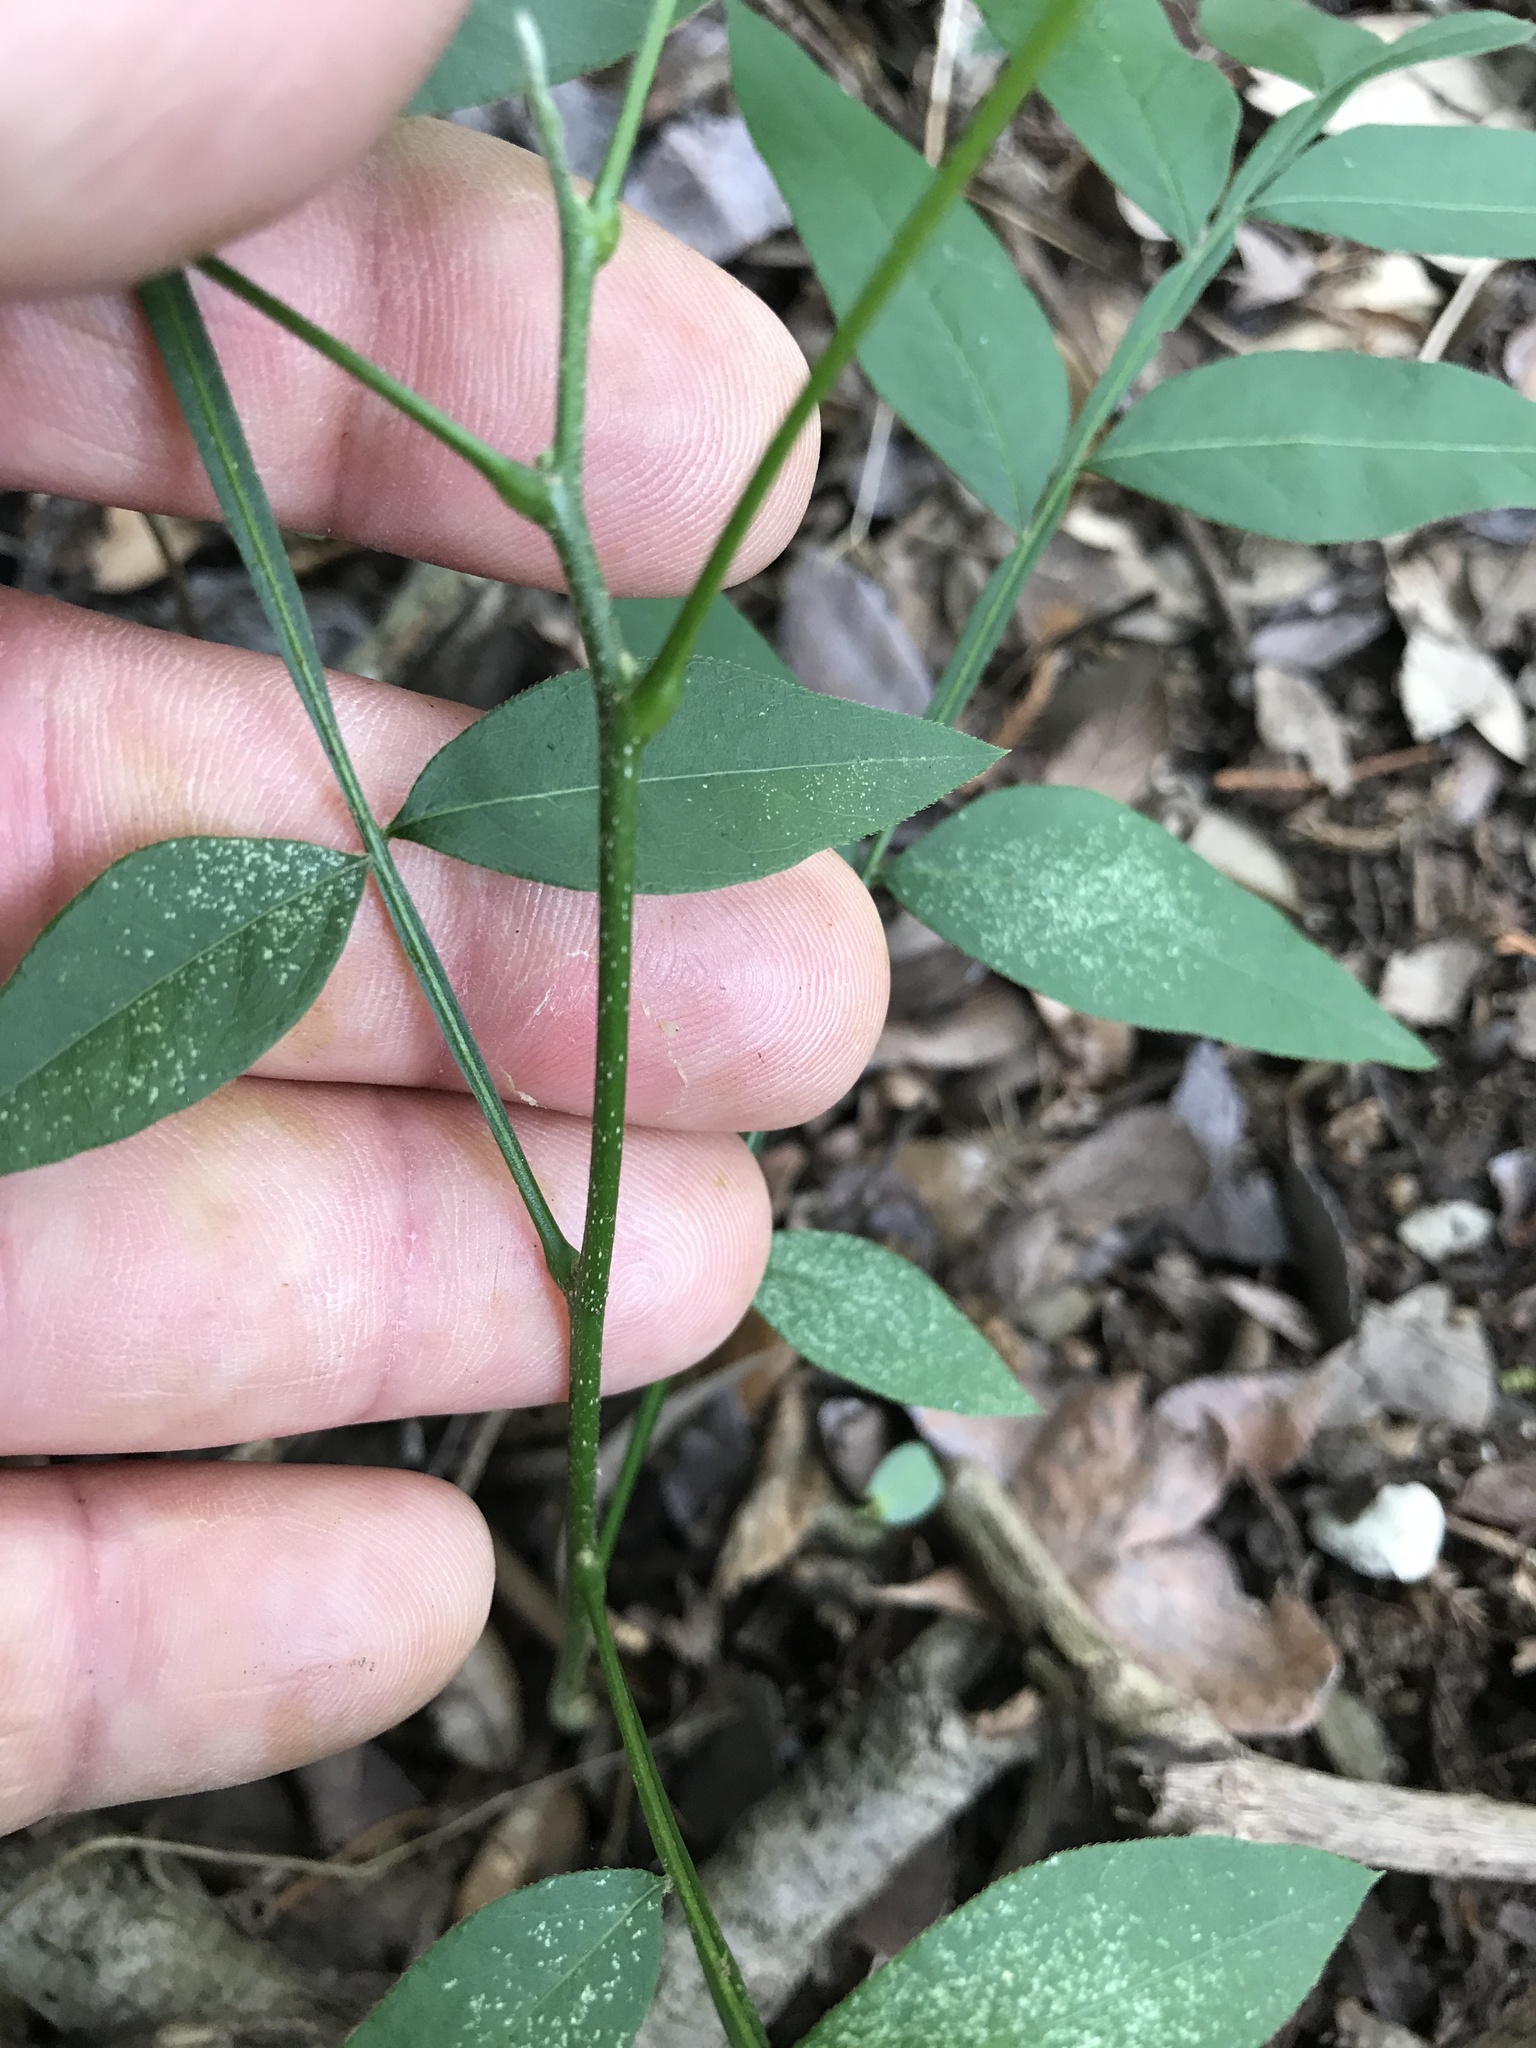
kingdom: Plantae
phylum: Tracheophyta
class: Magnoliopsida
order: Sapindales
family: Sapindaceae
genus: Sapindus
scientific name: Sapindus drummondii
